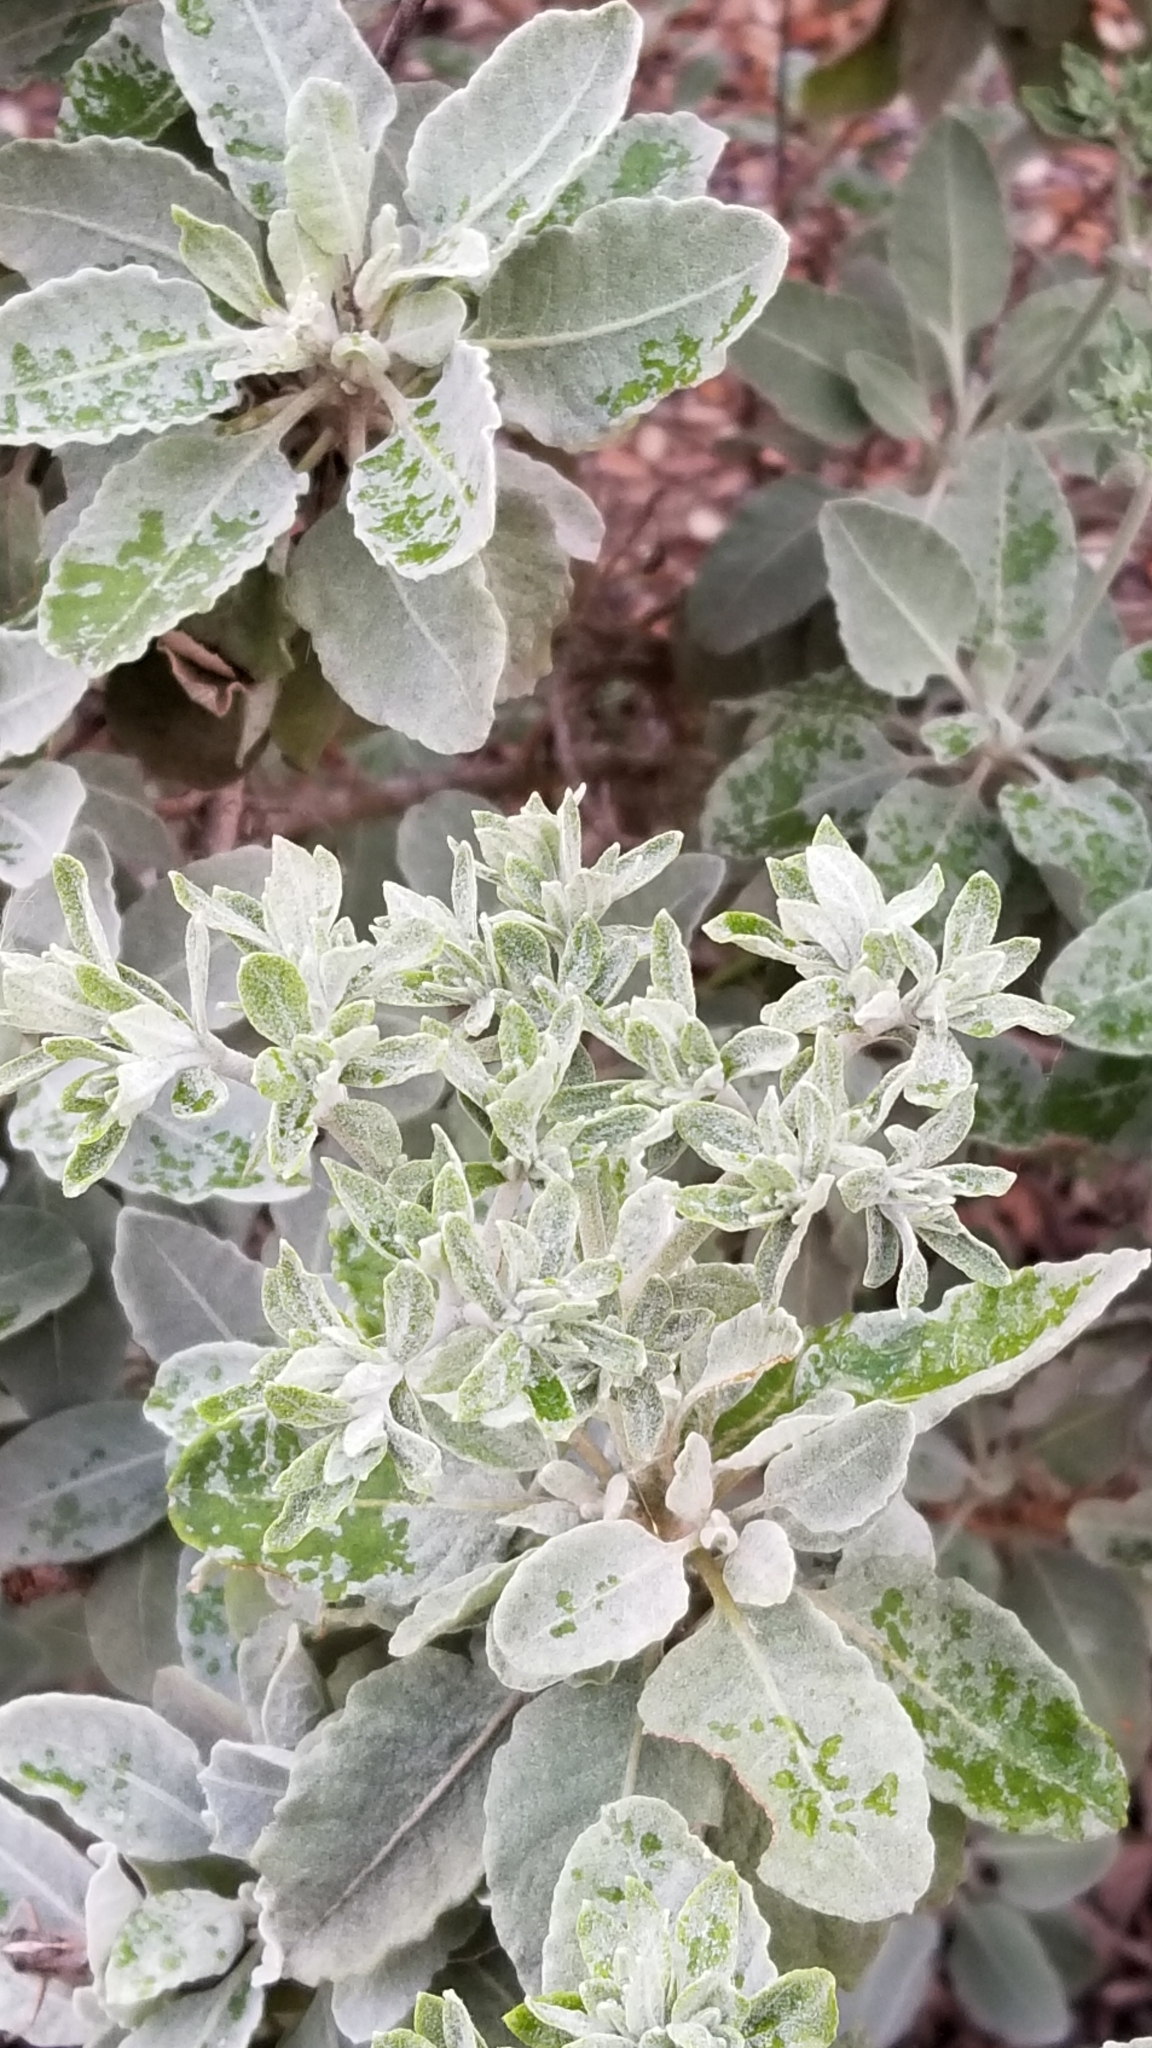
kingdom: Plantae
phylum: Tracheophyta
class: Magnoliopsida
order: Caryophyllales
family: Polygonaceae
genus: Eriogonum
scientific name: Eriogonum giganteum
